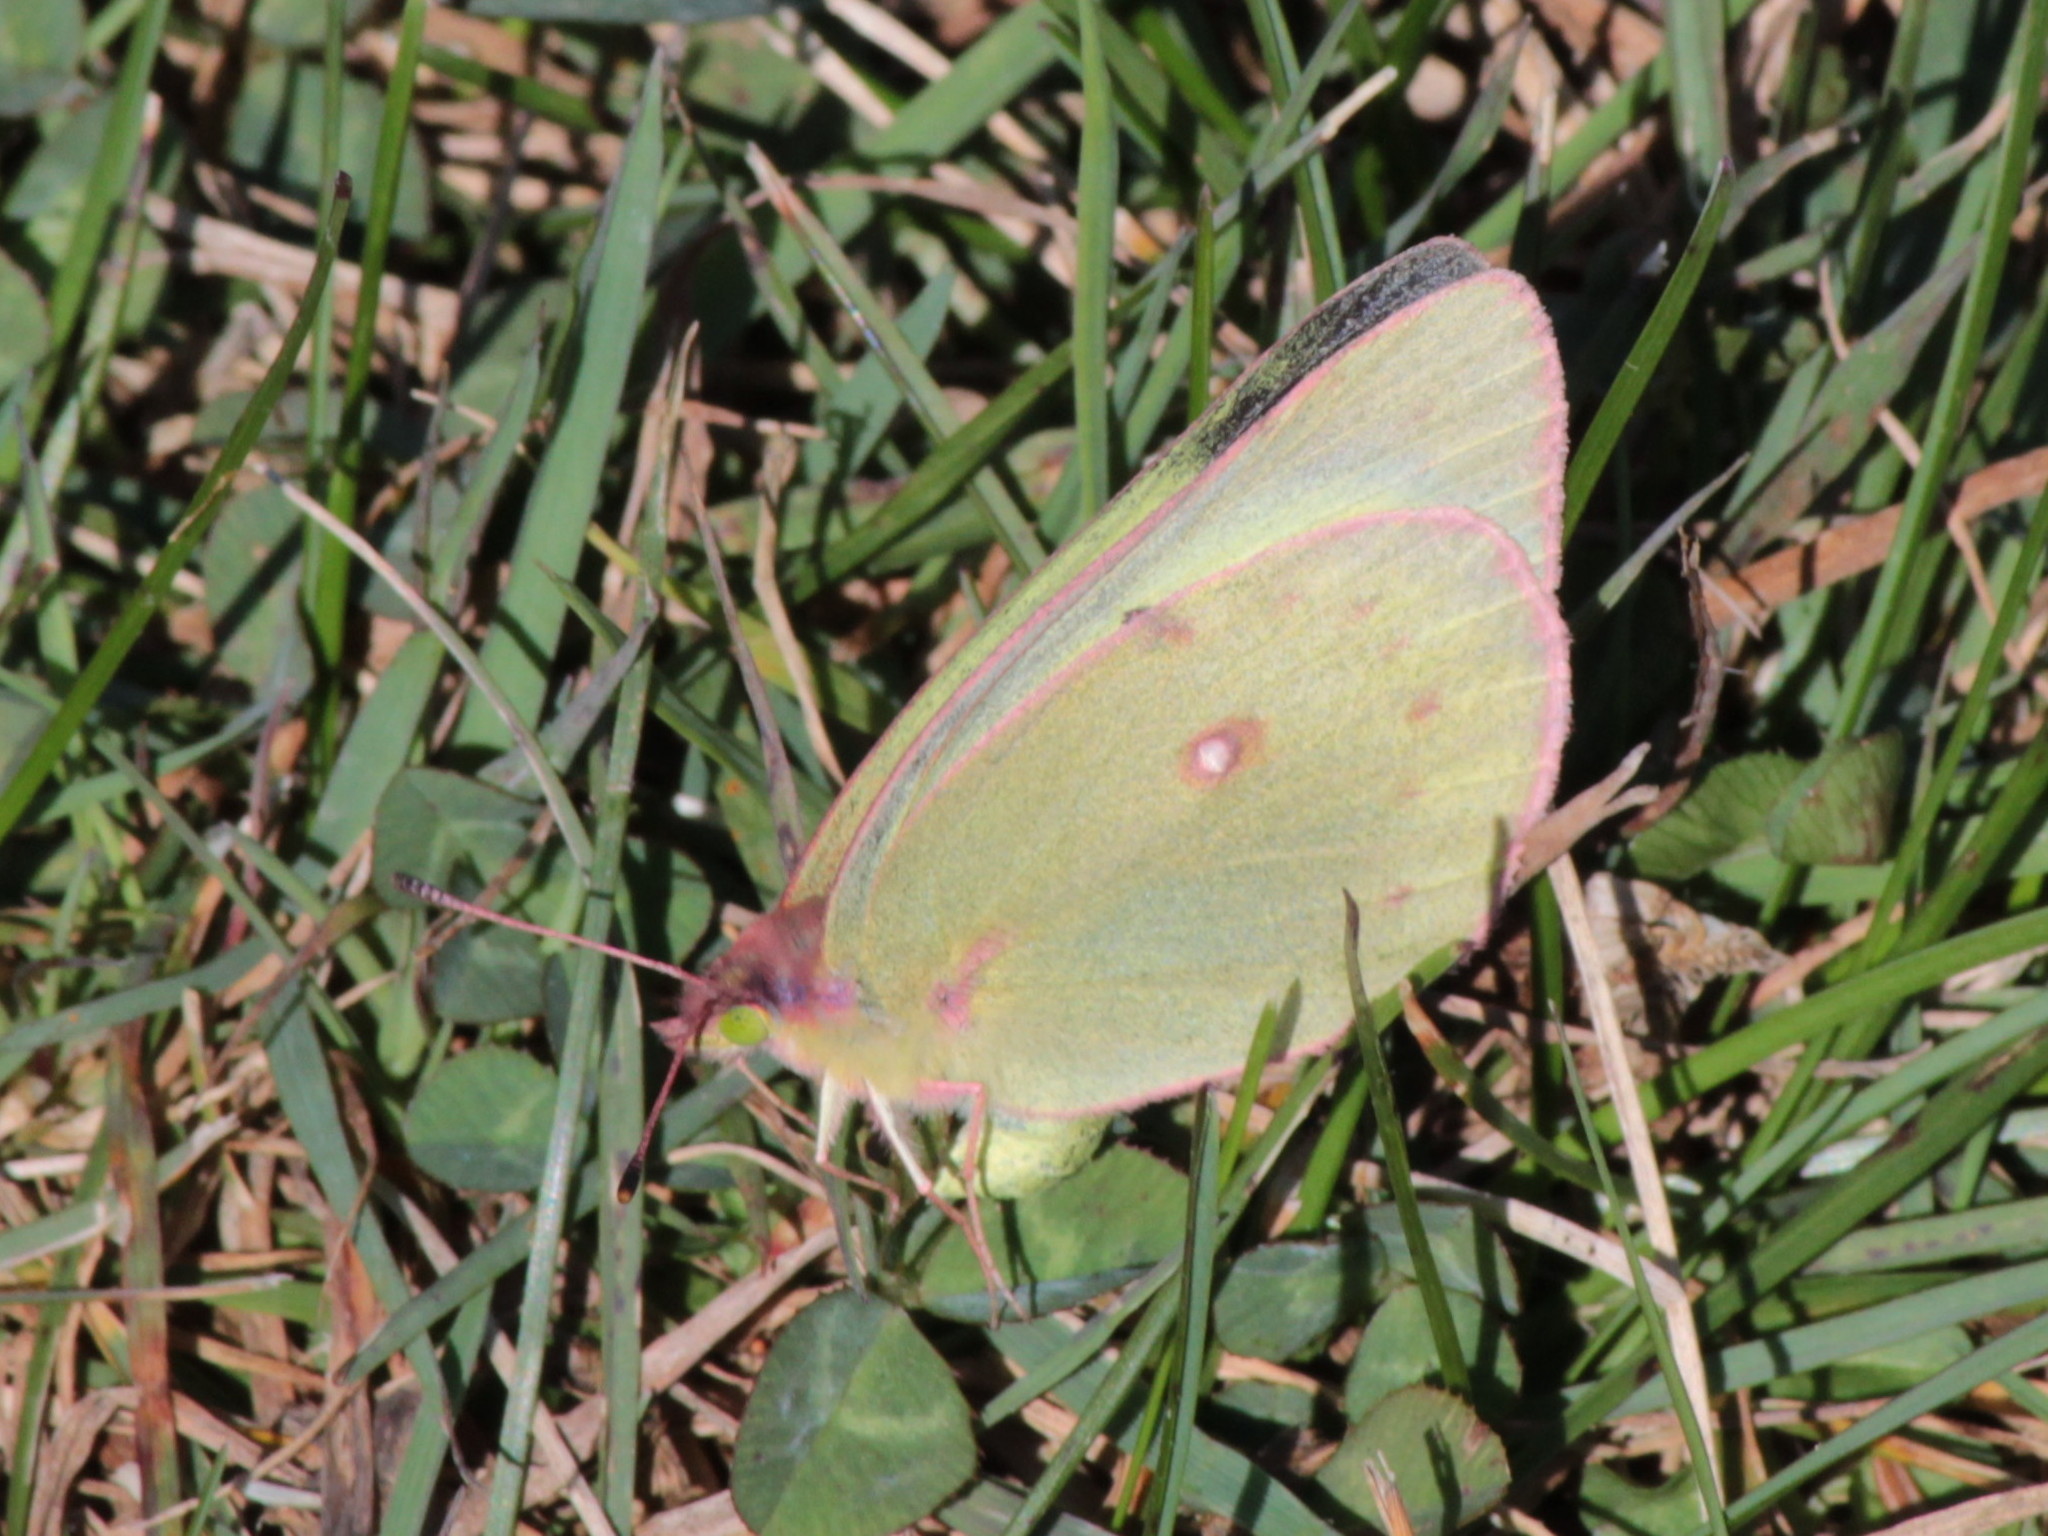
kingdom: Animalia
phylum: Arthropoda
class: Insecta
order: Lepidoptera
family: Pieridae
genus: Colias
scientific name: Colias philodice
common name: Clouded sulphur
